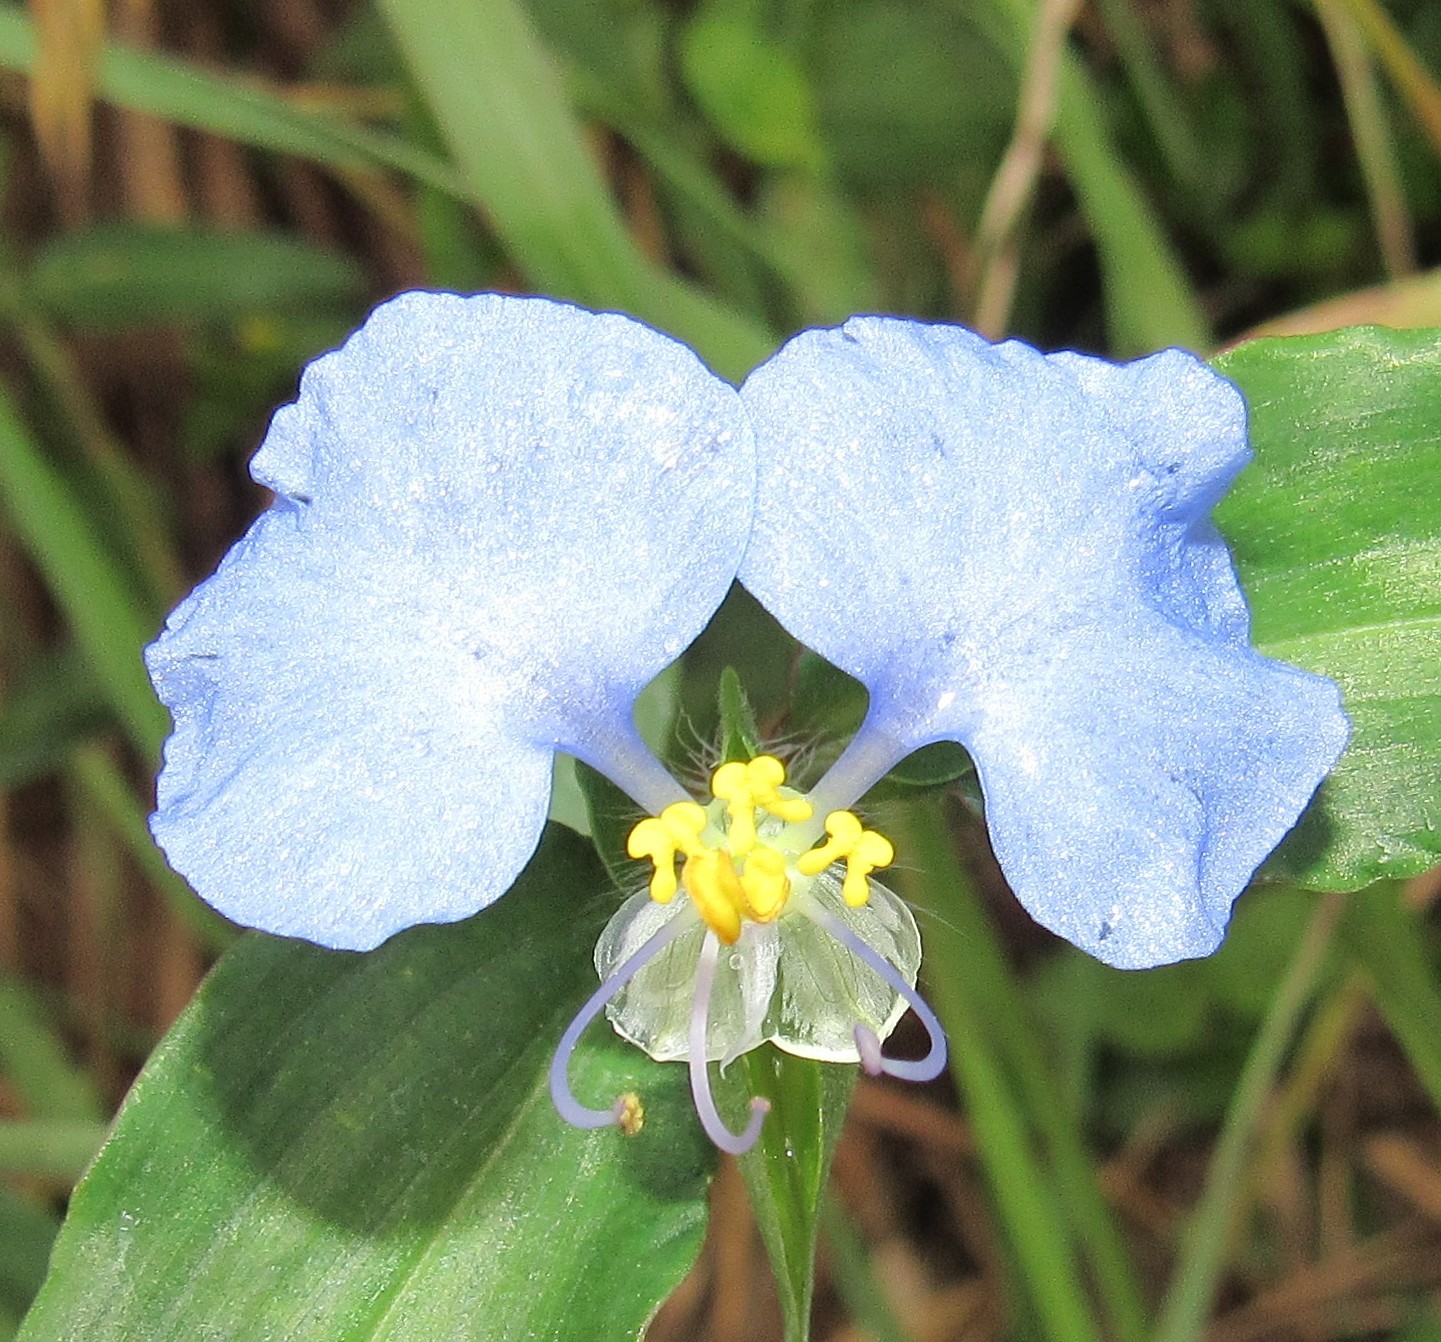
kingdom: Plantae
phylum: Tracheophyta
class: Liliopsida
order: Commelinales
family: Commelinaceae
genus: Commelina
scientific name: Commelina erecta
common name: Blousel blommetjie
